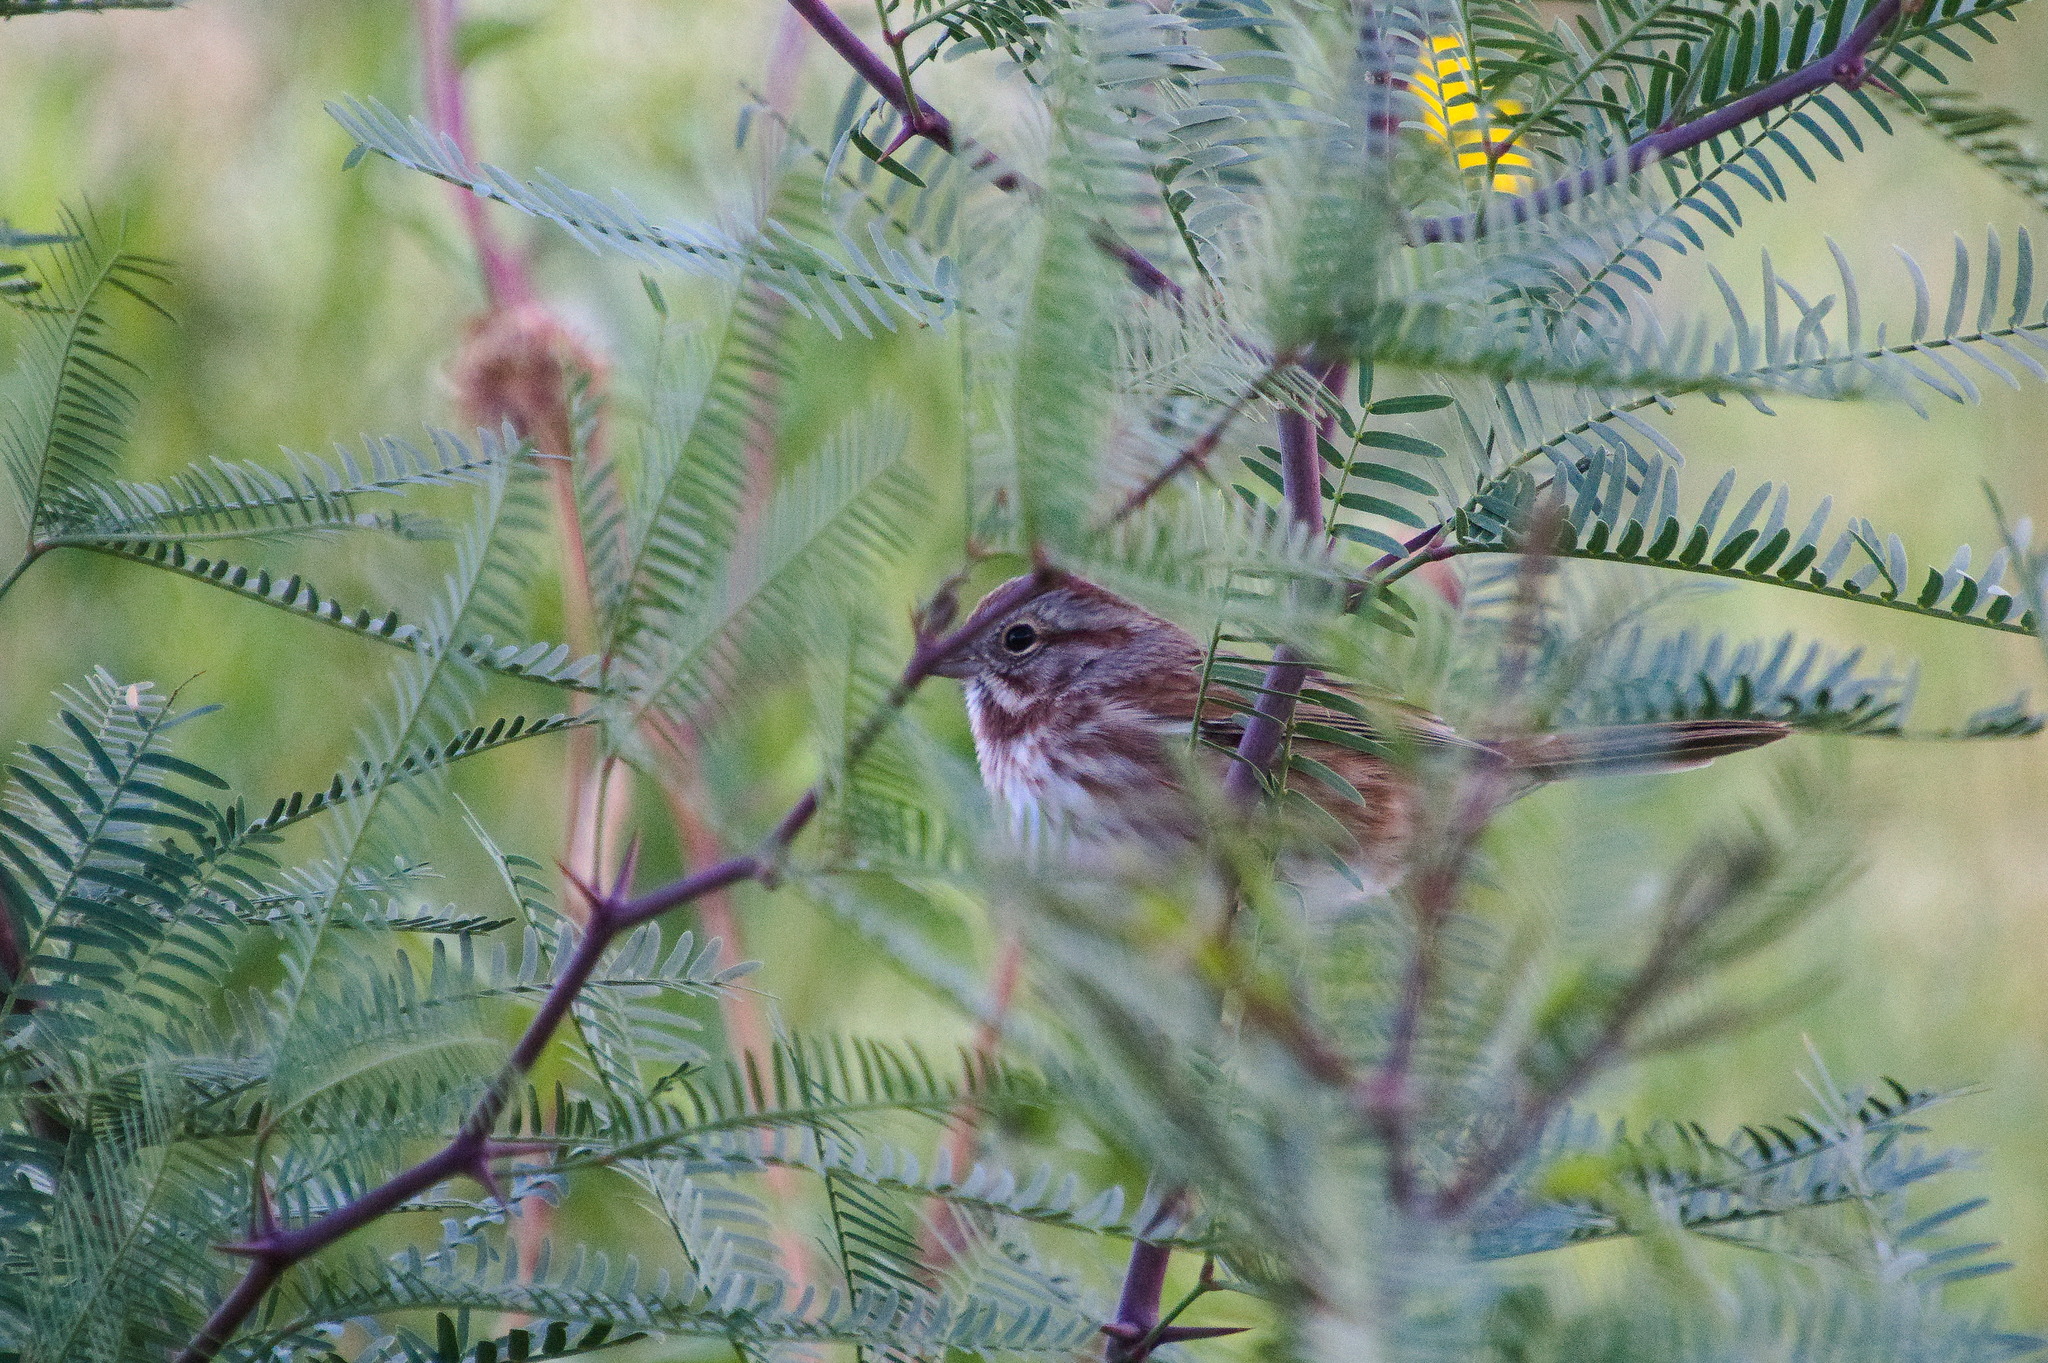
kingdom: Animalia
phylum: Chordata
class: Aves
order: Passeriformes
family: Passerellidae
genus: Melospiza
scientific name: Melospiza melodia
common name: Song sparrow
